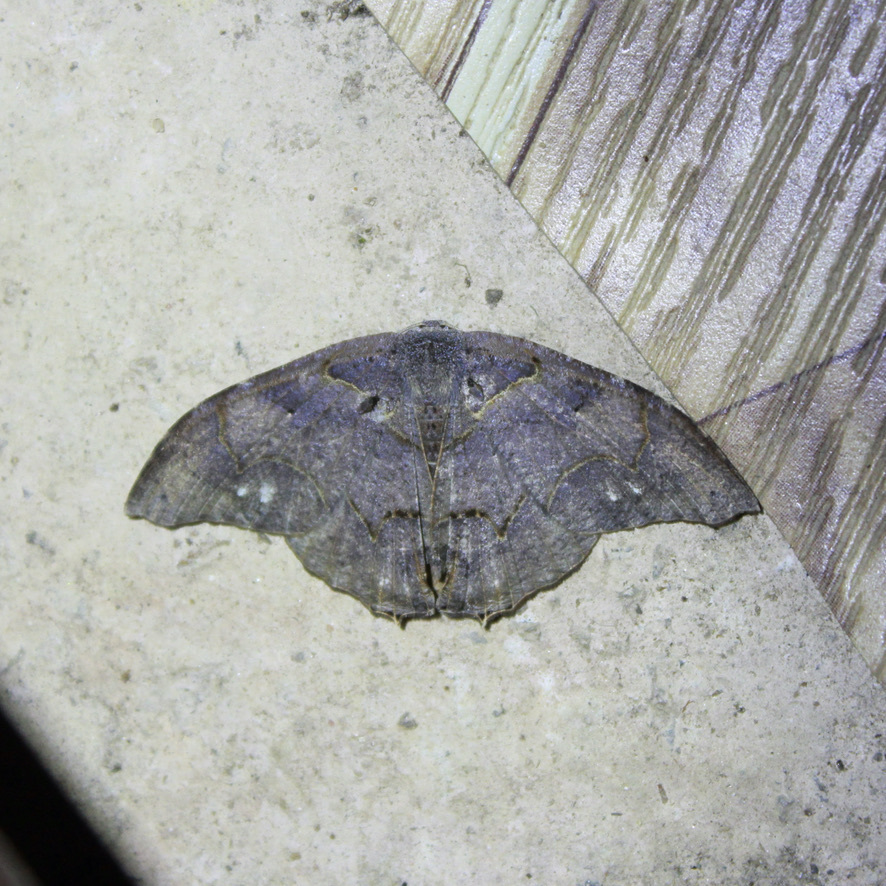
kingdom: Animalia
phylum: Arthropoda
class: Insecta
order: Lepidoptera
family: Uraniidae
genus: Syngria
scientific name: Syngria druidaria
